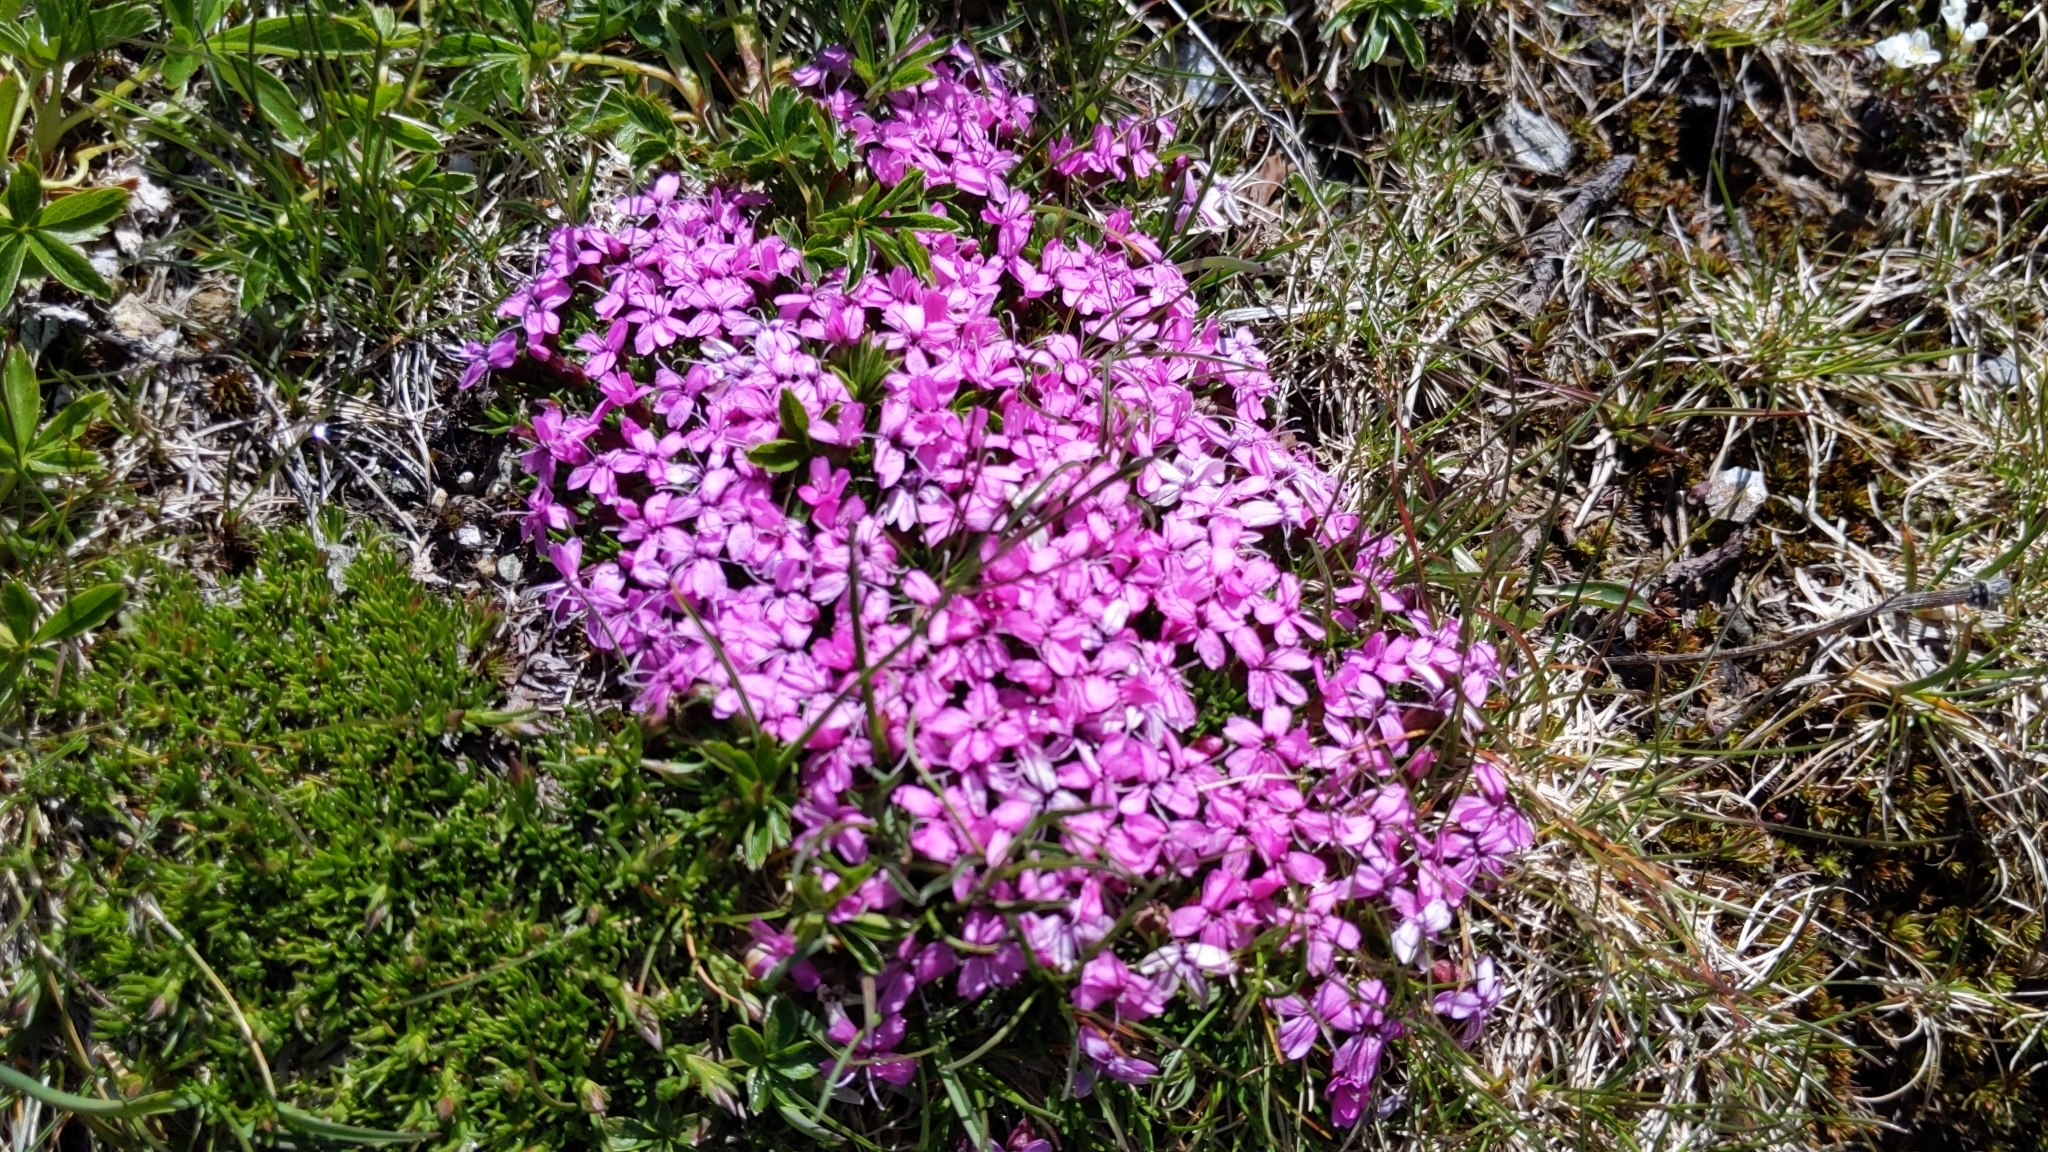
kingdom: Plantae
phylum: Tracheophyta
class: Magnoliopsida
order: Caryophyllales
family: Caryophyllaceae
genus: Silene
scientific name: Silene acaulis
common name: Moss campion
